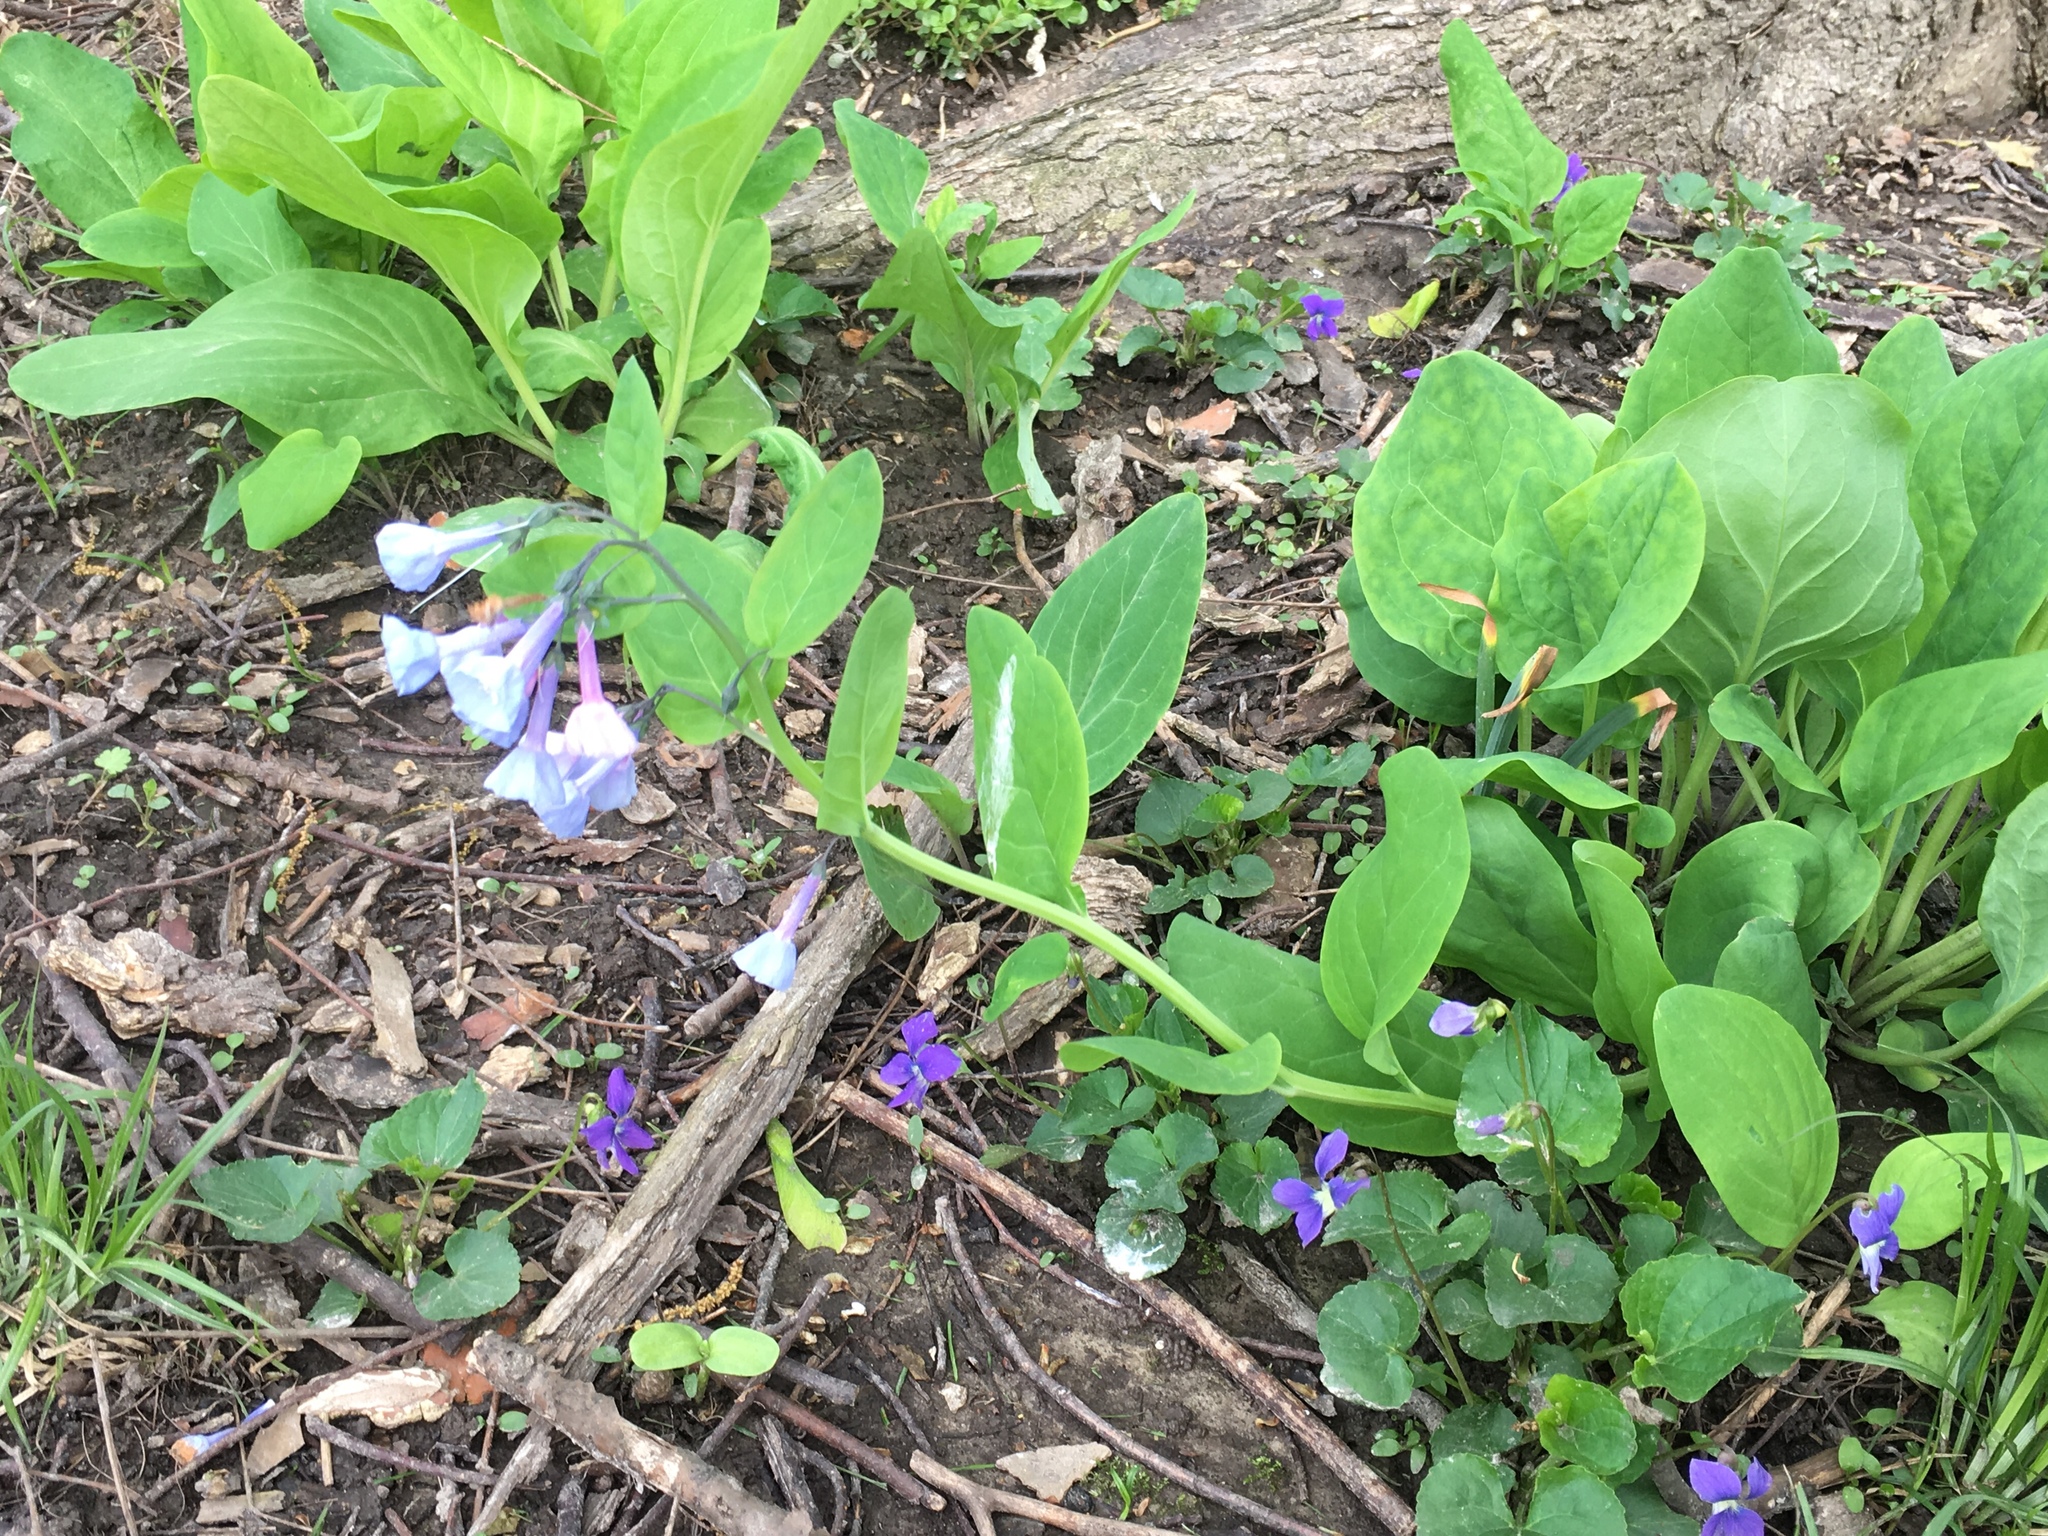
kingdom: Plantae
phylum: Tracheophyta
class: Magnoliopsida
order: Boraginales
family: Boraginaceae
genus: Mertensia
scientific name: Mertensia virginica
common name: Virginia bluebells
